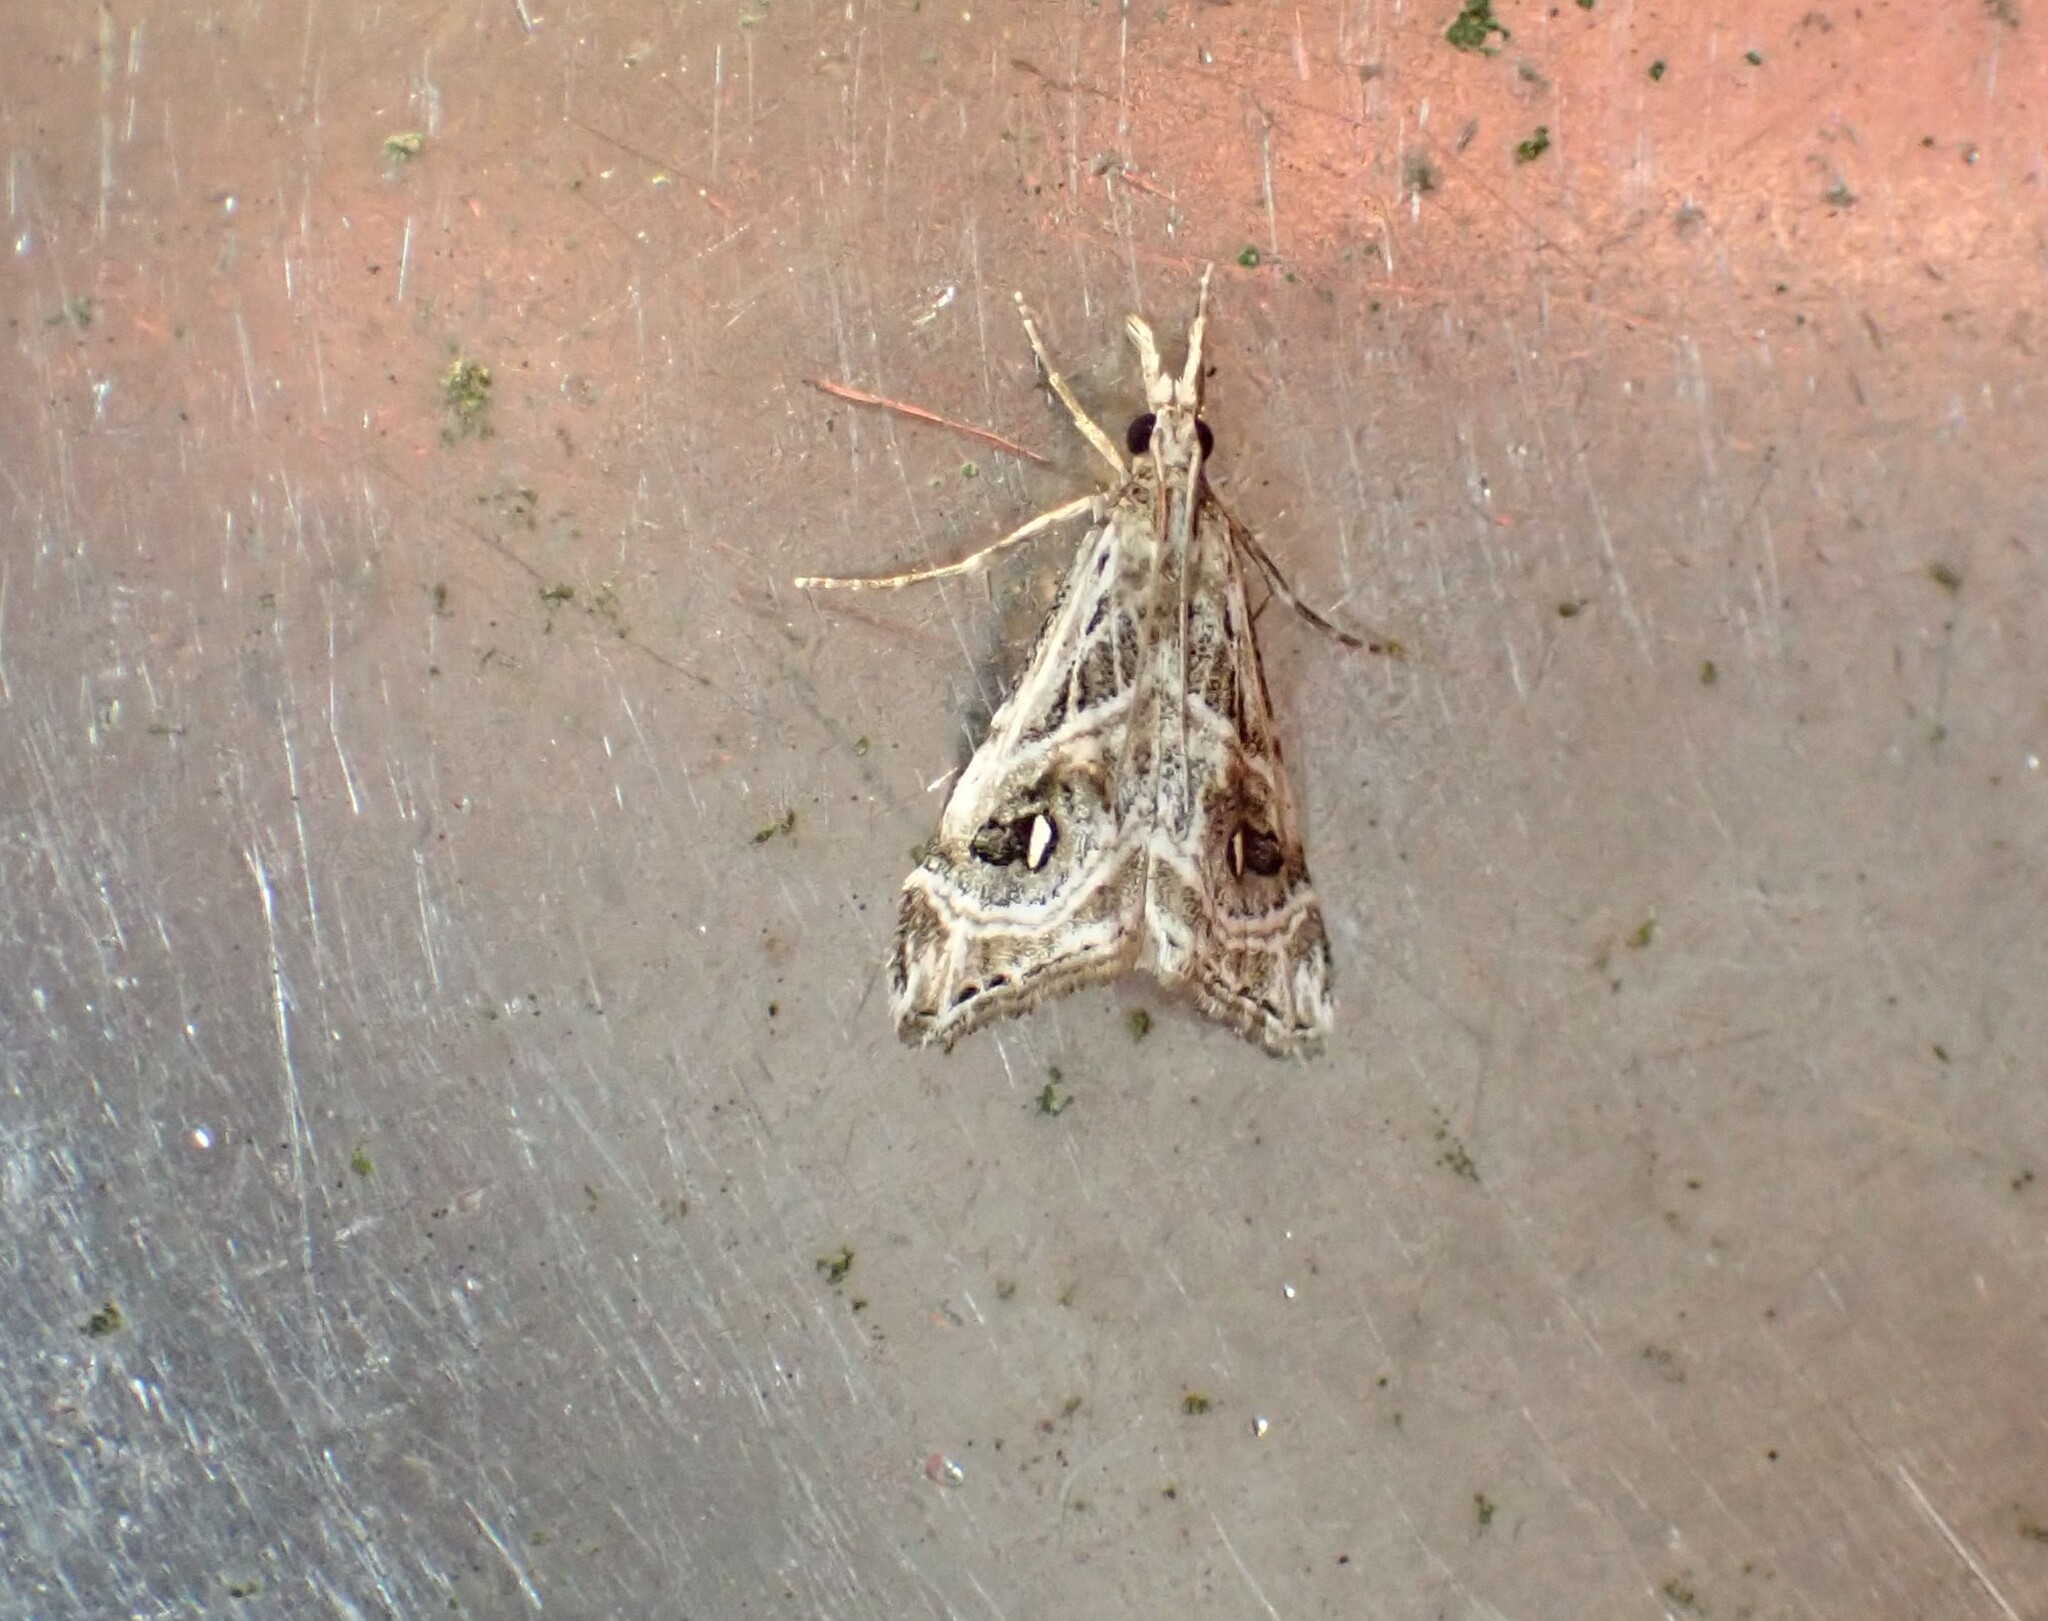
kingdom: Animalia
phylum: Arthropoda
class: Insecta
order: Lepidoptera
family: Crambidae
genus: Gadira
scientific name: Gadira acerella
